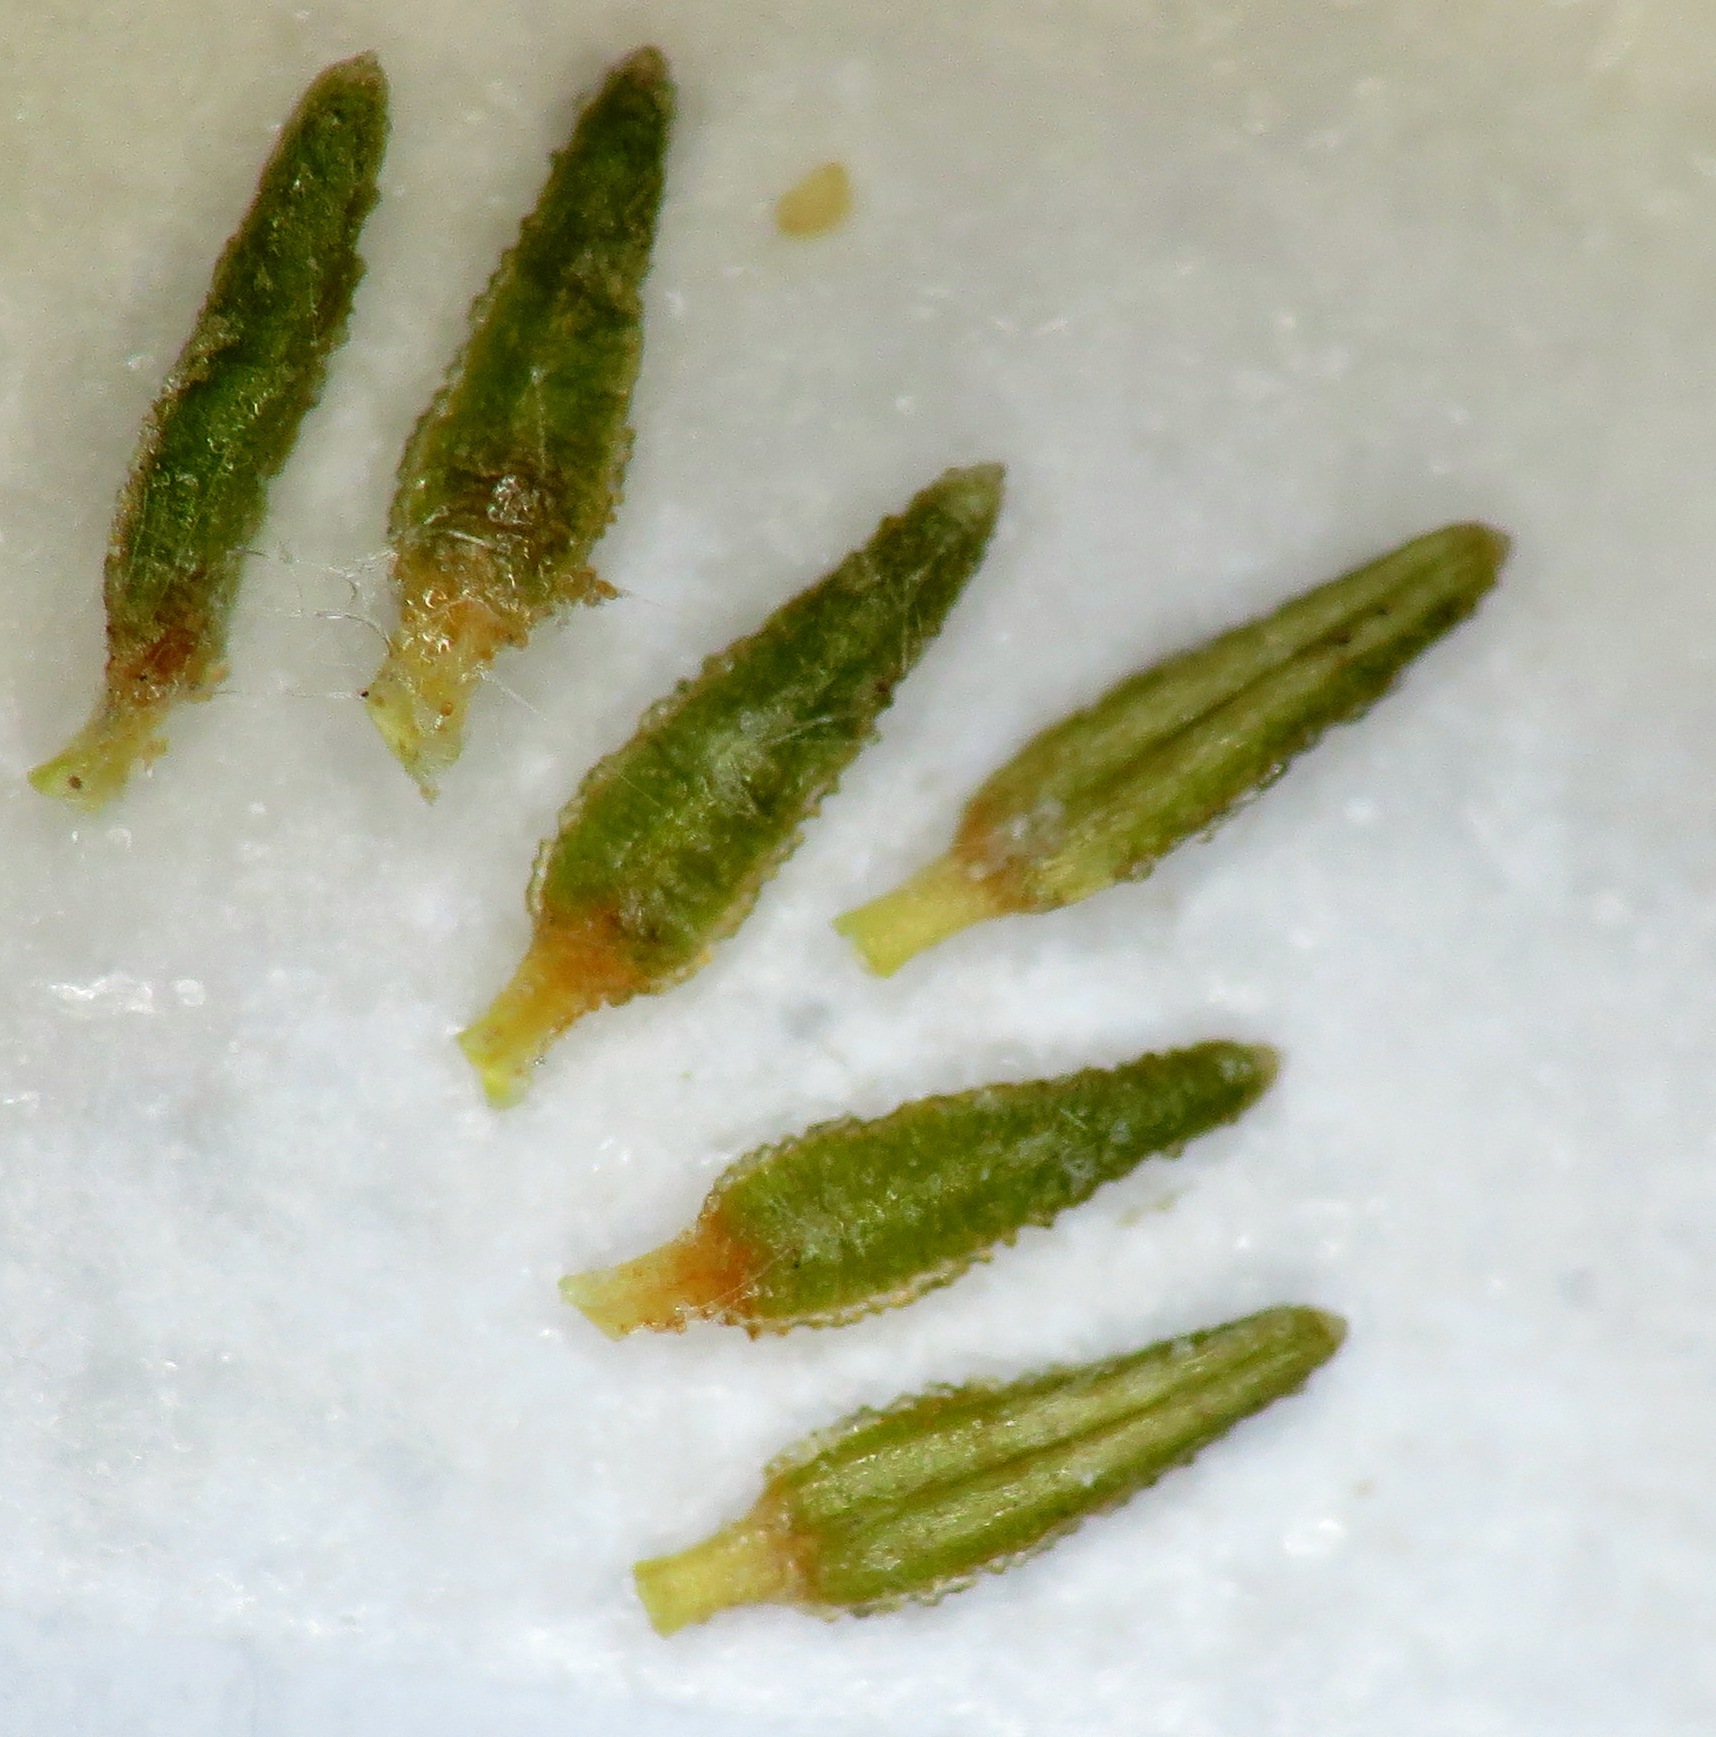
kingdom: Plantae
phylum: Tracheophyta
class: Magnoliopsida
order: Ericales
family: Ericaceae
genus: Erica
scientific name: Erica lasciva
